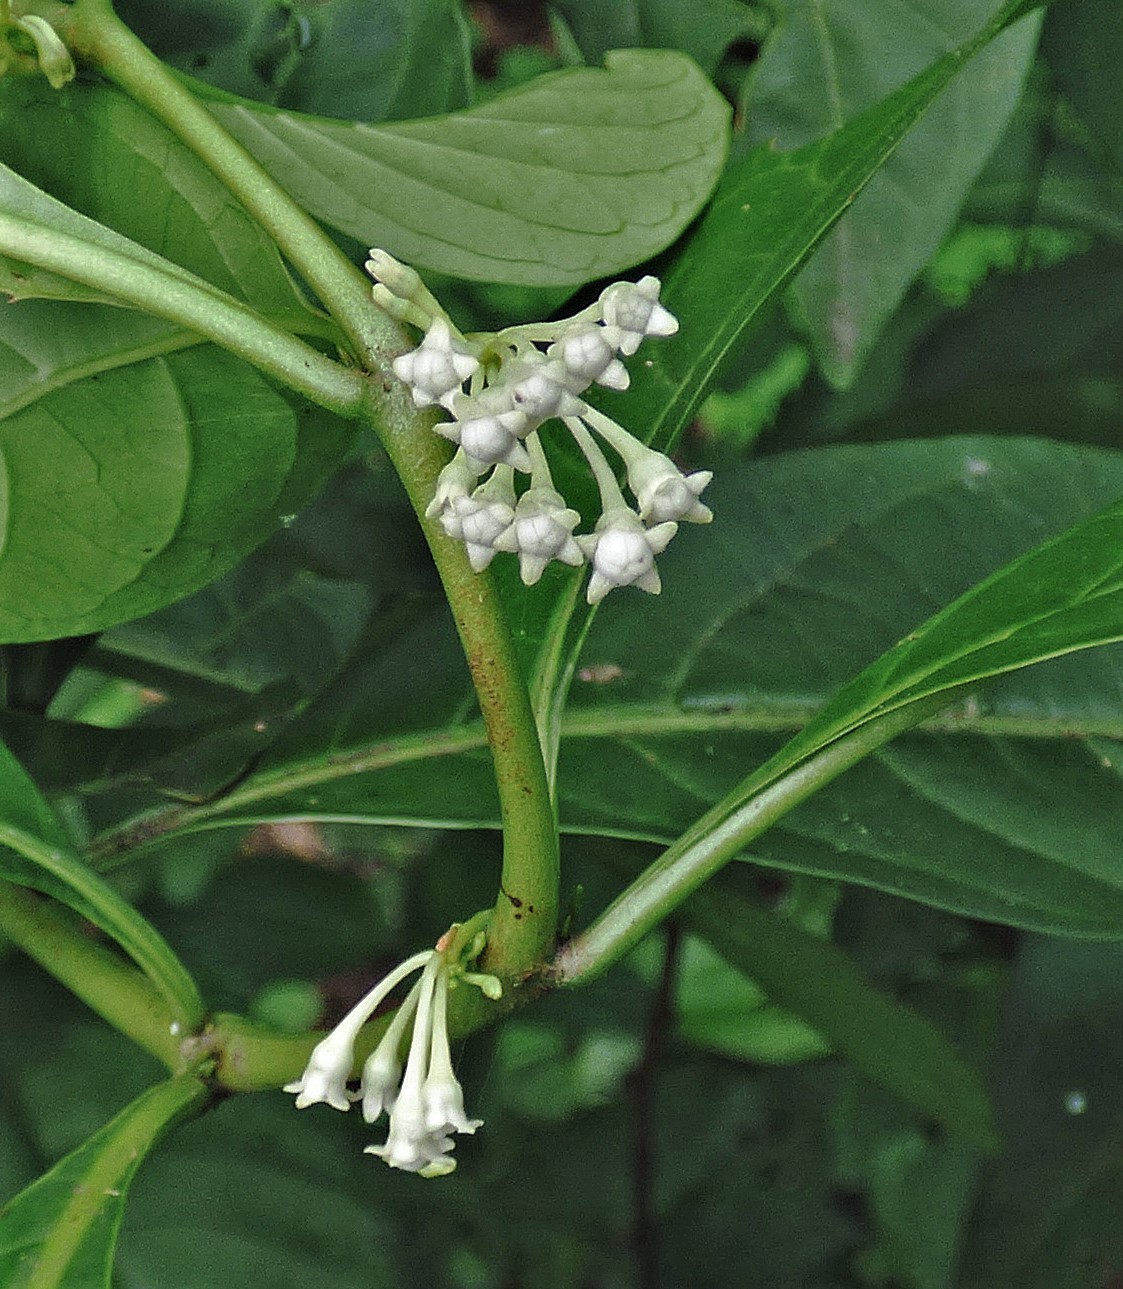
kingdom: Plantae
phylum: Tracheophyta
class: Magnoliopsida
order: Solanales
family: Solanaceae
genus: Solanum
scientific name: Solanum symmetricum
